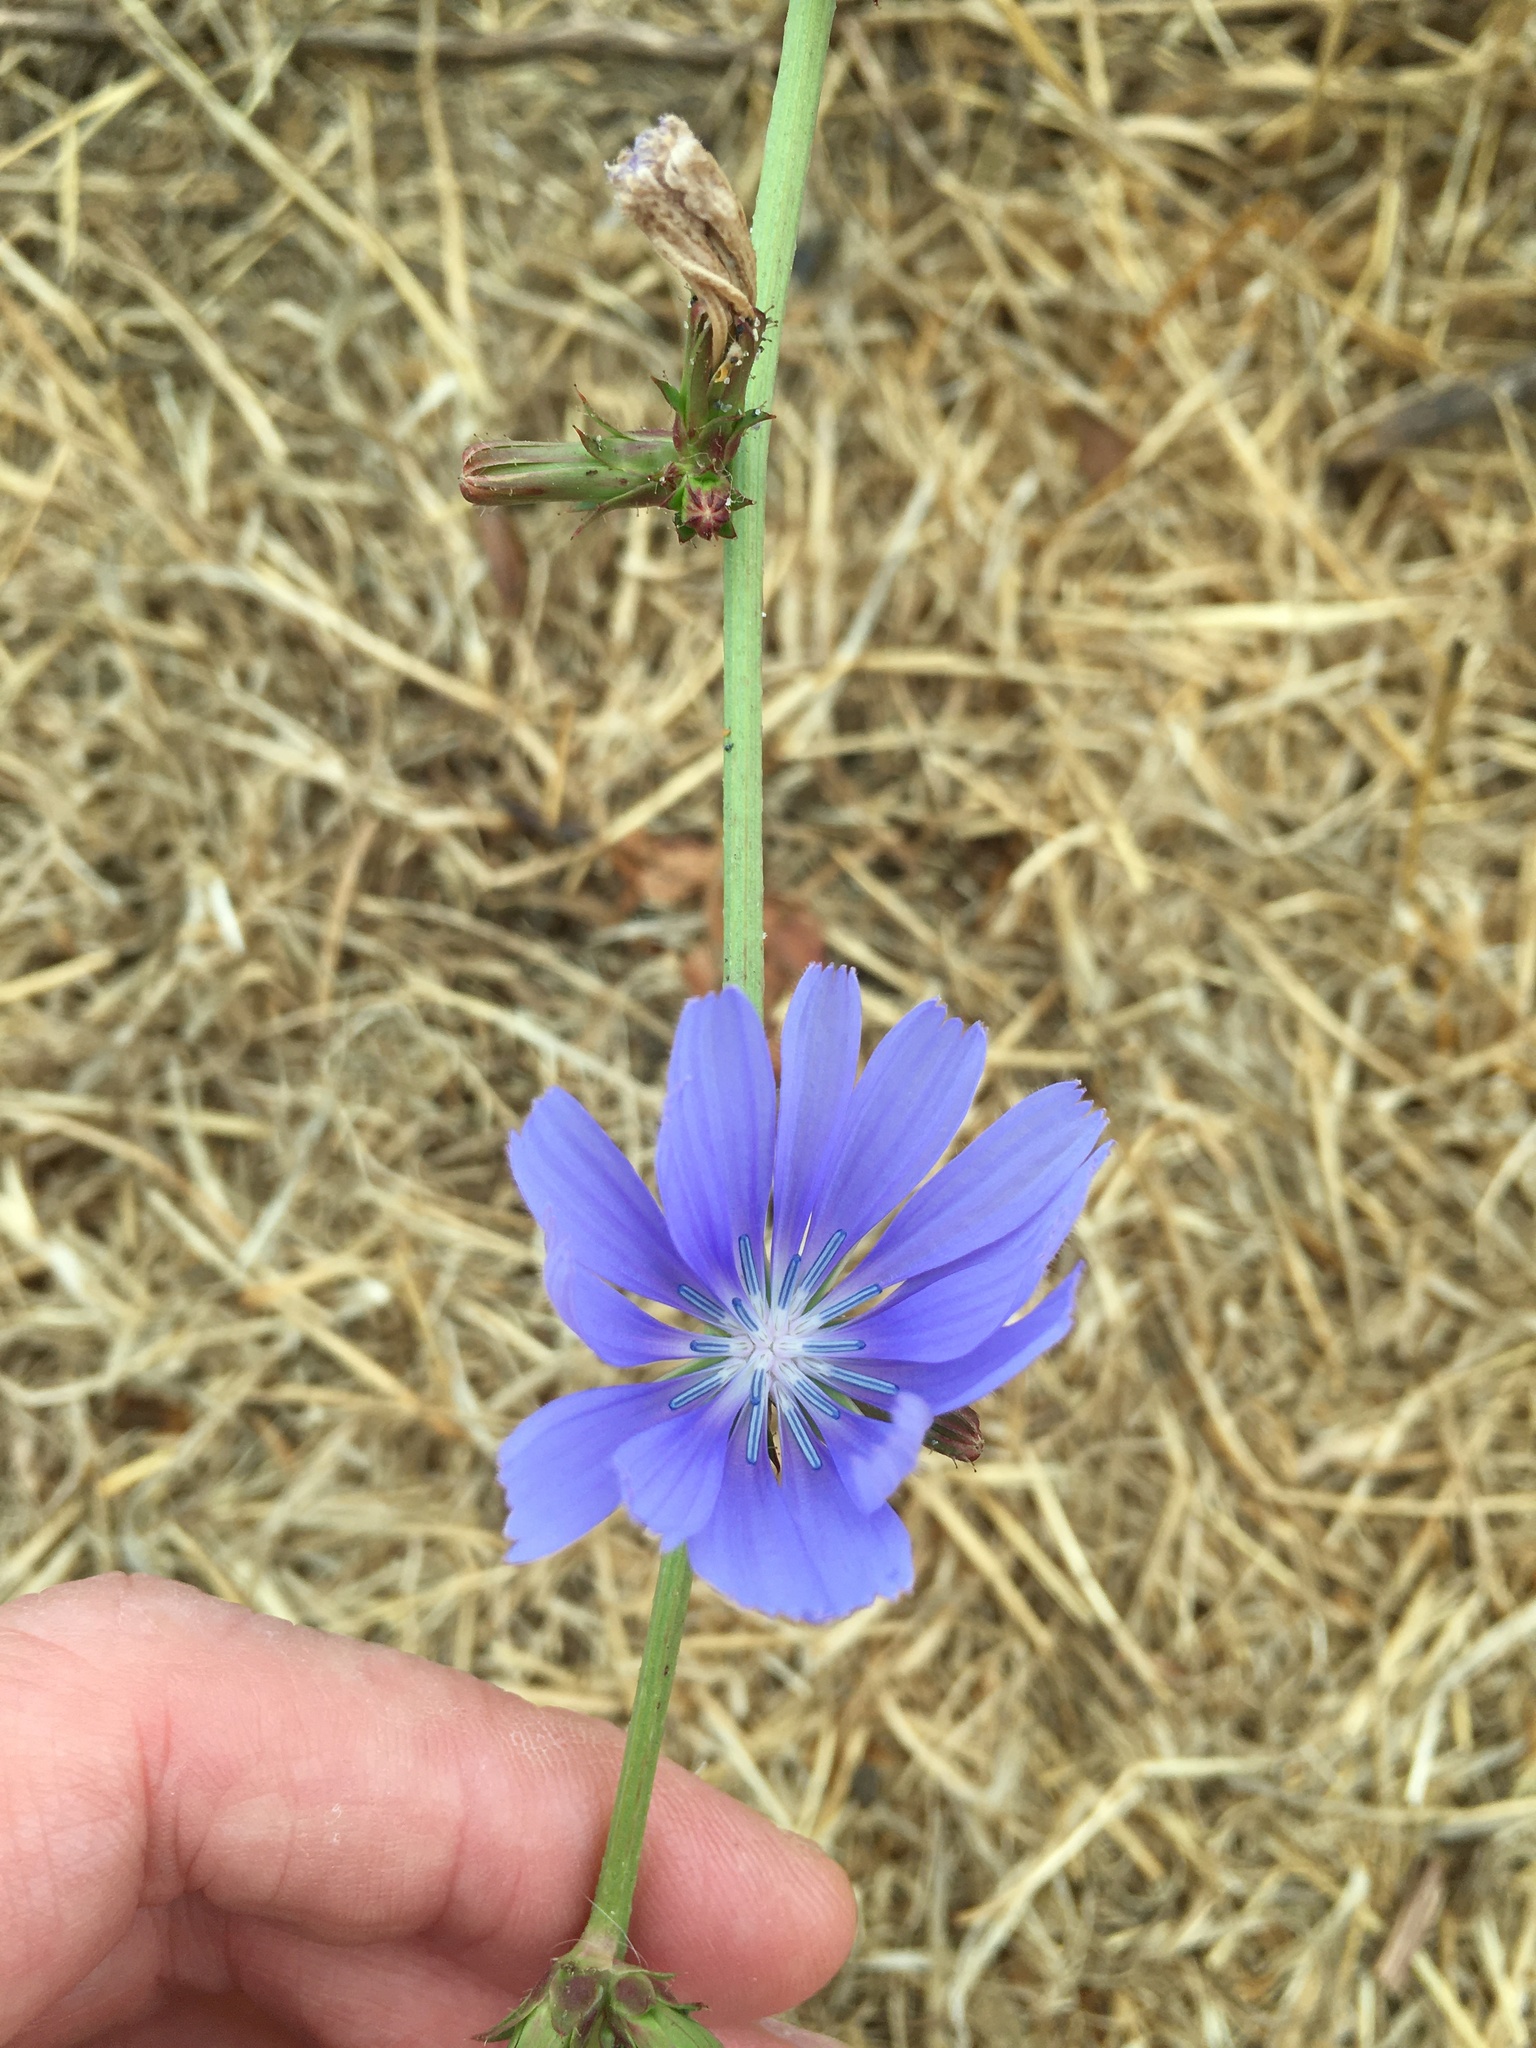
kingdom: Plantae
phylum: Tracheophyta
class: Magnoliopsida
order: Asterales
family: Asteraceae
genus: Cichorium
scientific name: Cichorium intybus
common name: Chicory
